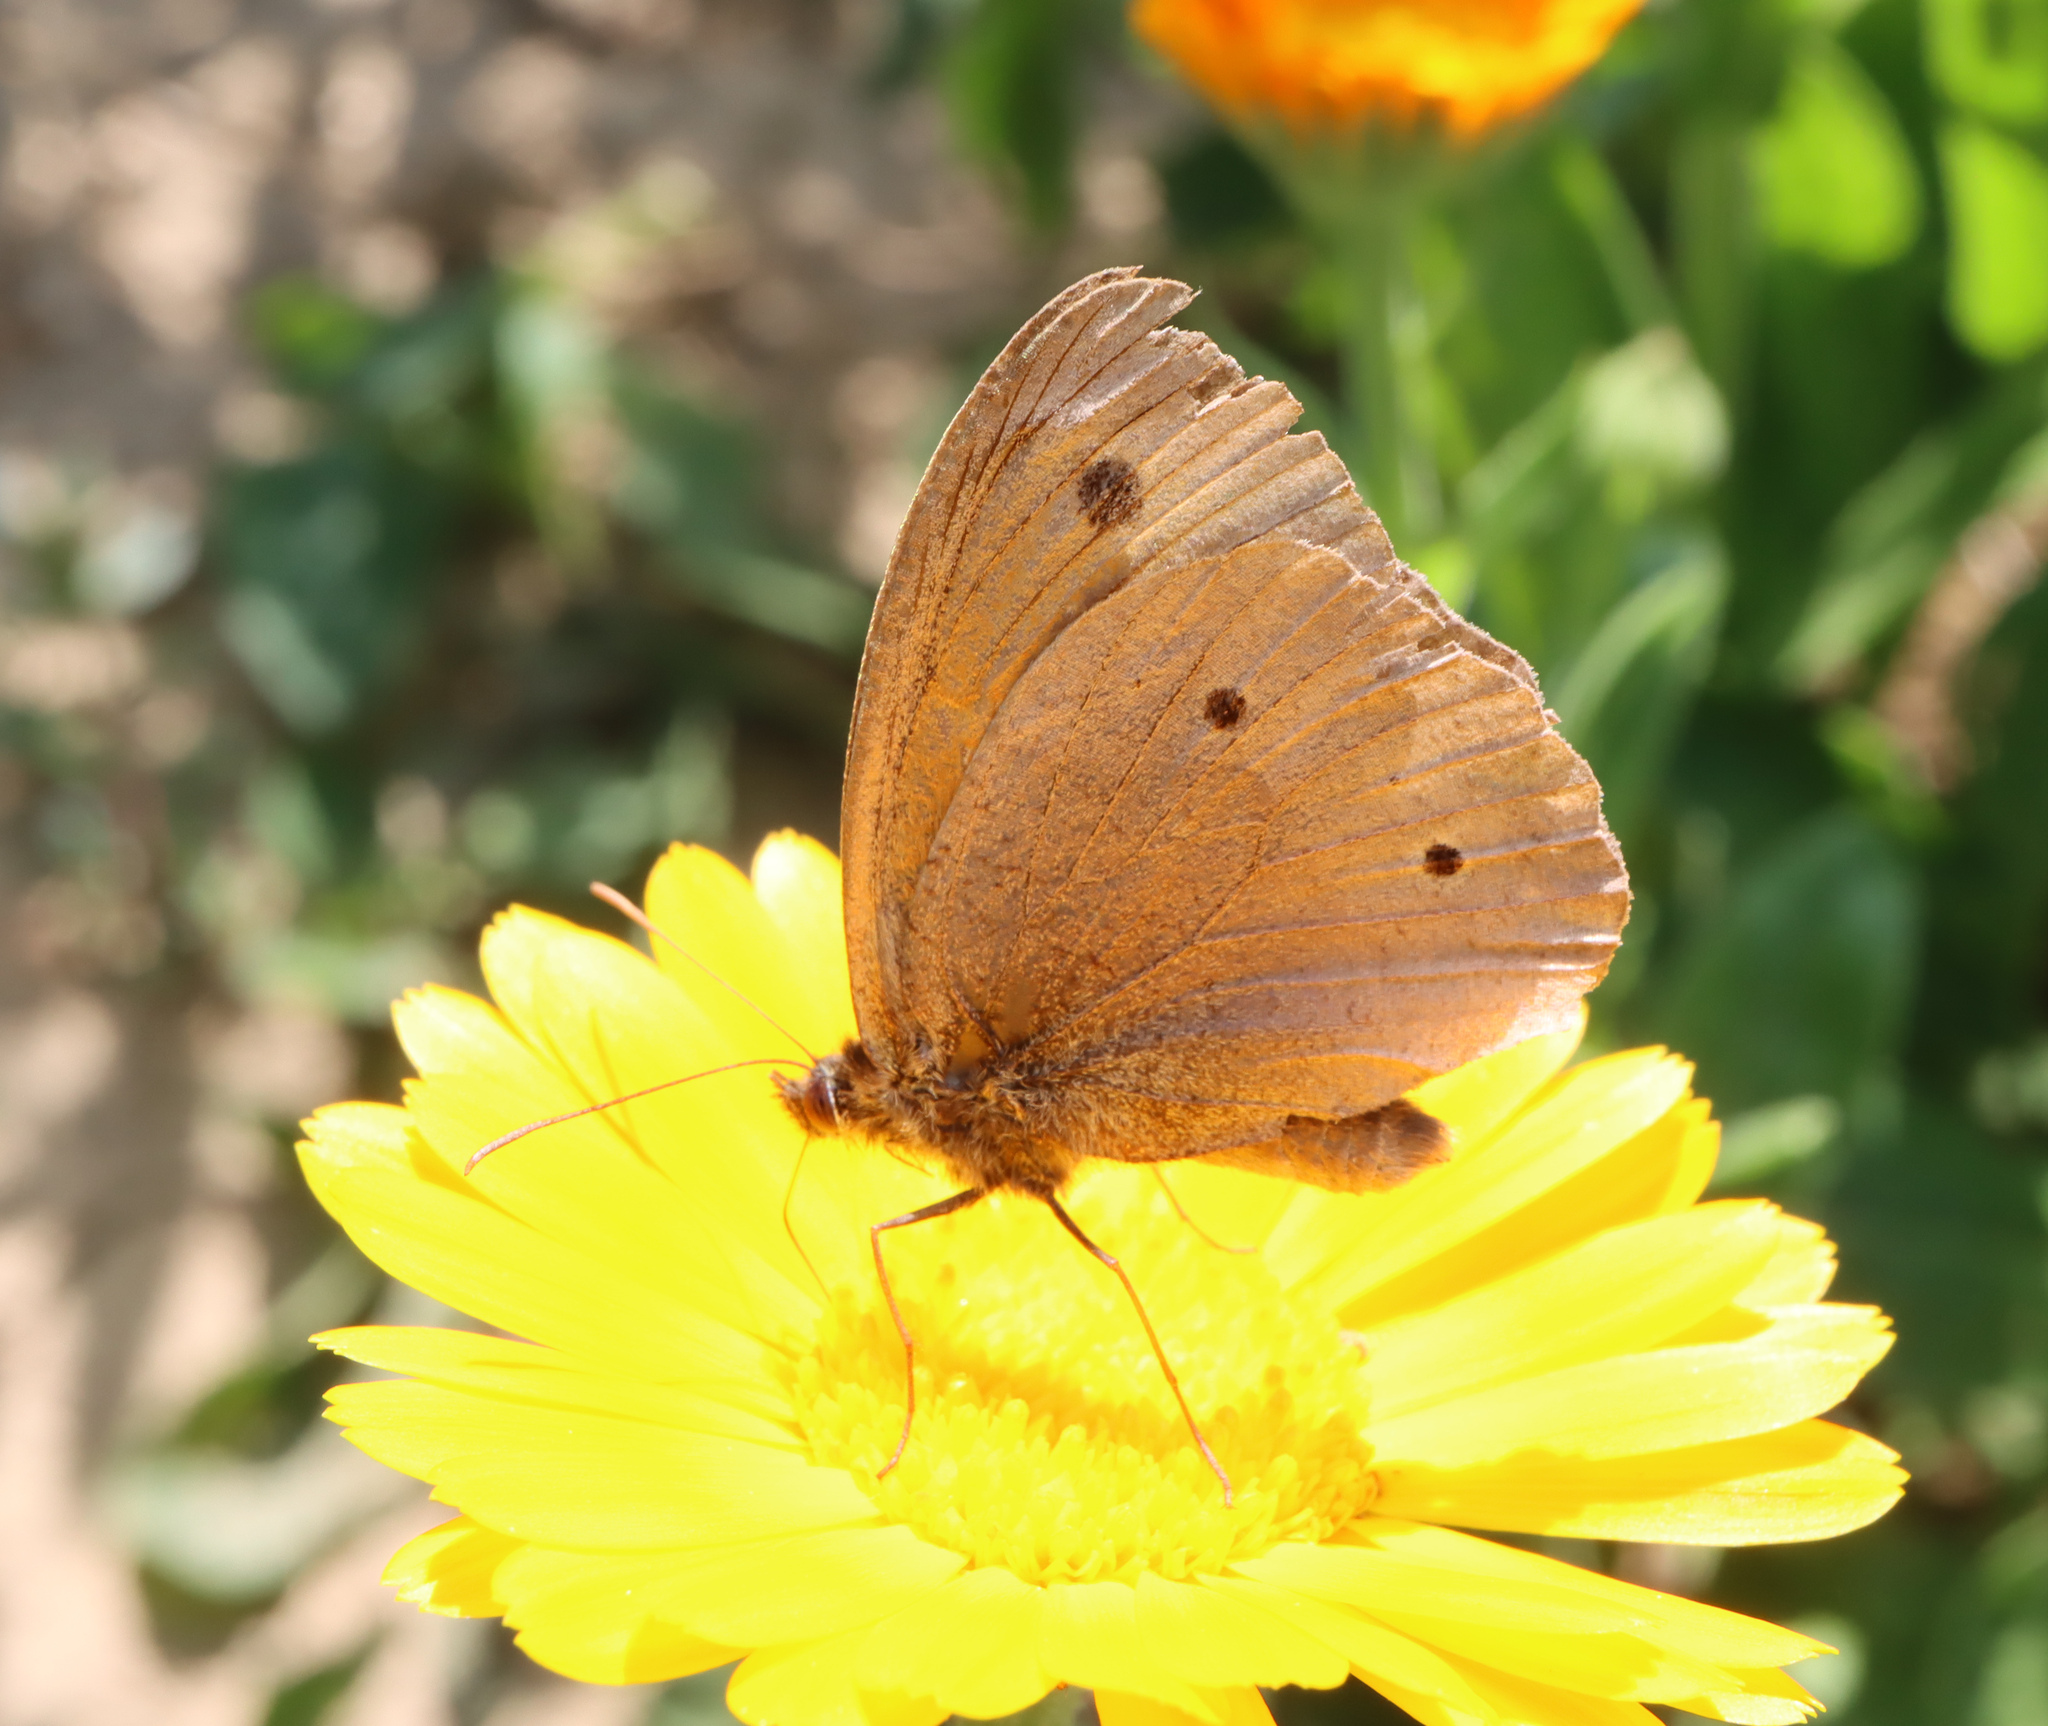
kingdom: Animalia
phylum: Arthropoda
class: Insecta
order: Lepidoptera
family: Nymphalidae
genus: Maniola
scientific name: Maniola jurtina
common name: Meadow brown
